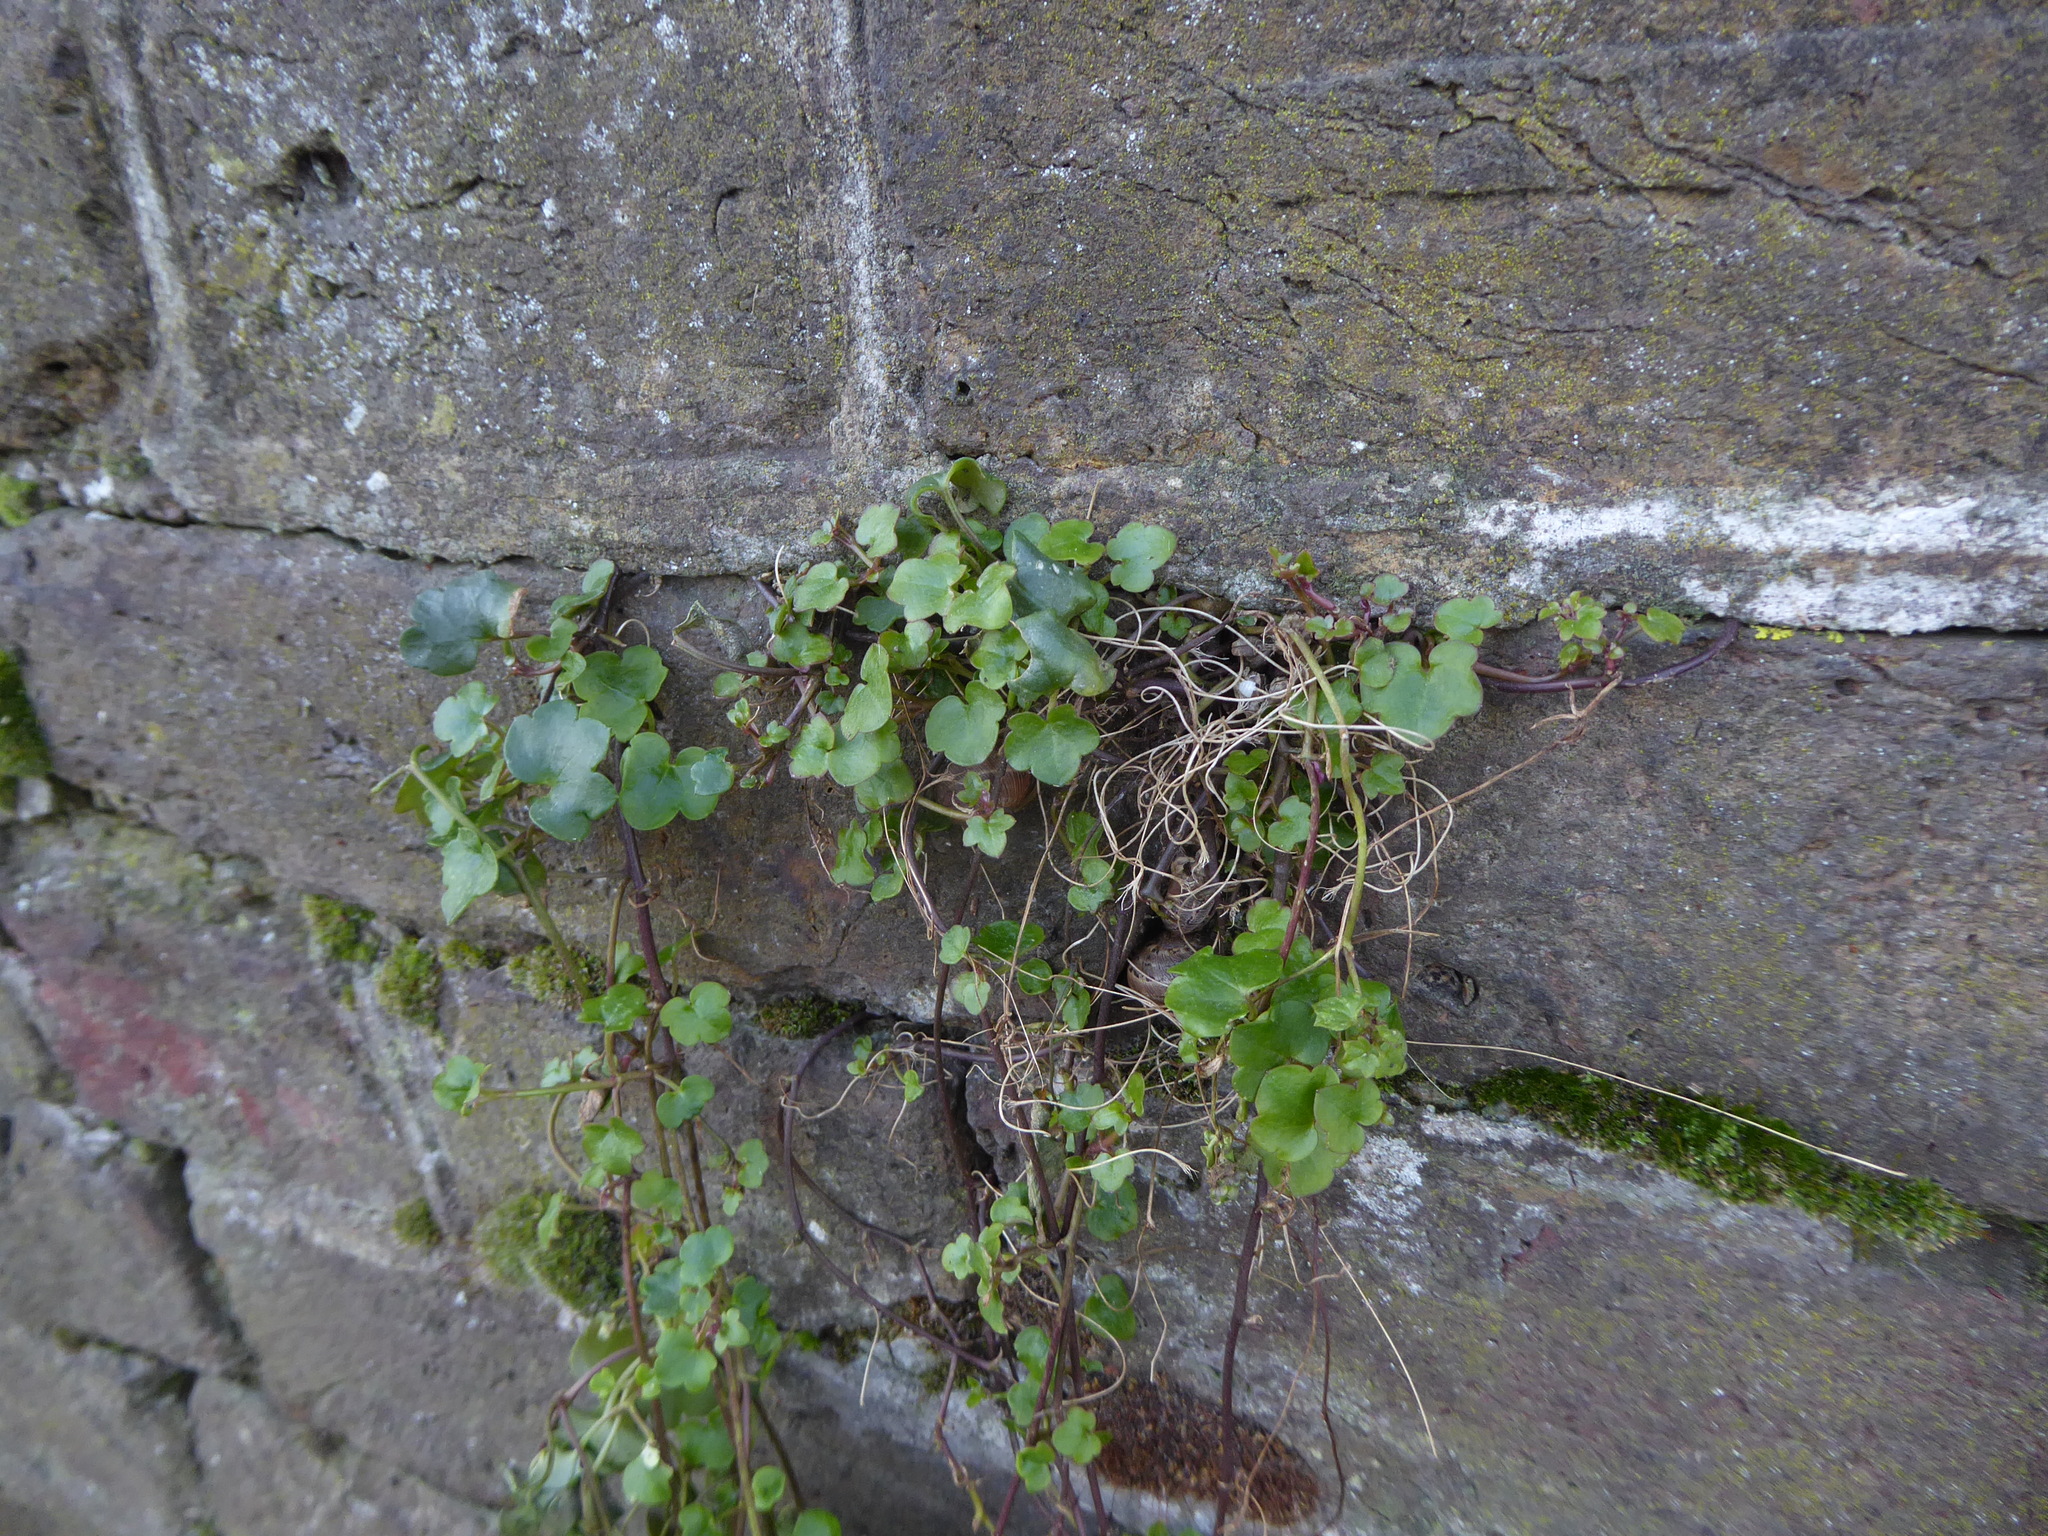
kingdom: Plantae
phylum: Tracheophyta
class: Magnoliopsida
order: Lamiales
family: Plantaginaceae
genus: Cymbalaria
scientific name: Cymbalaria muralis
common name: Ivy-leaved toadflax
